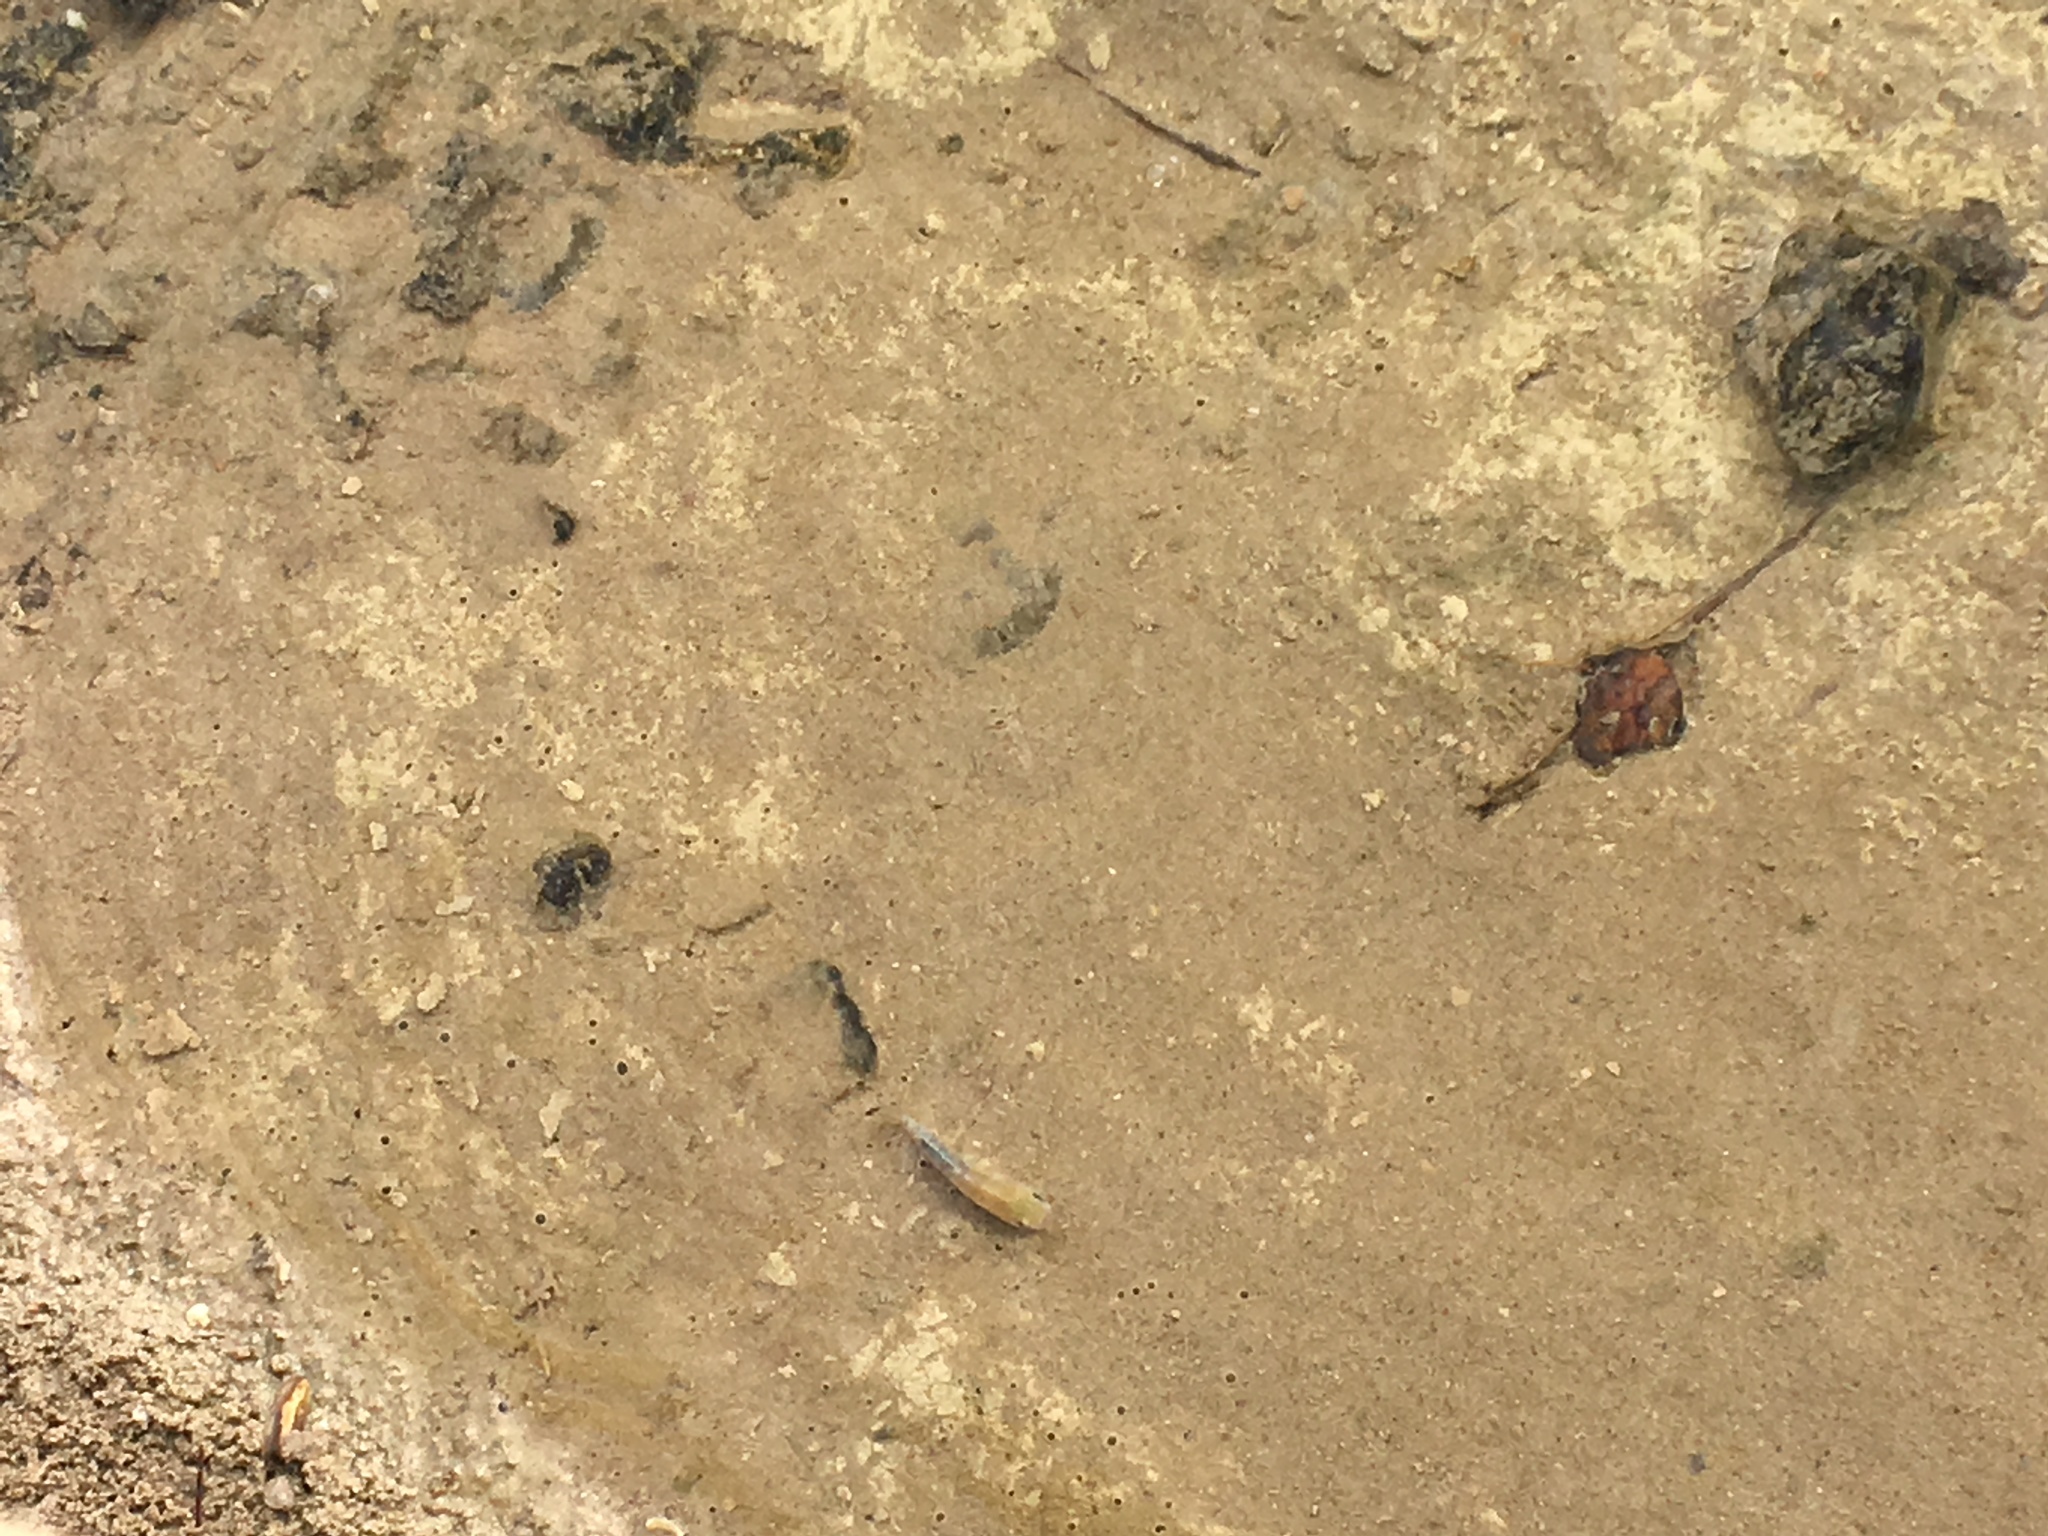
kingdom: Animalia
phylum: Chordata
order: Cyprinodontiformes
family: Cyprinodontidae
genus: Cyprinodon
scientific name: Cyprinodon salinus
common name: Cottonball marsh pupfish
